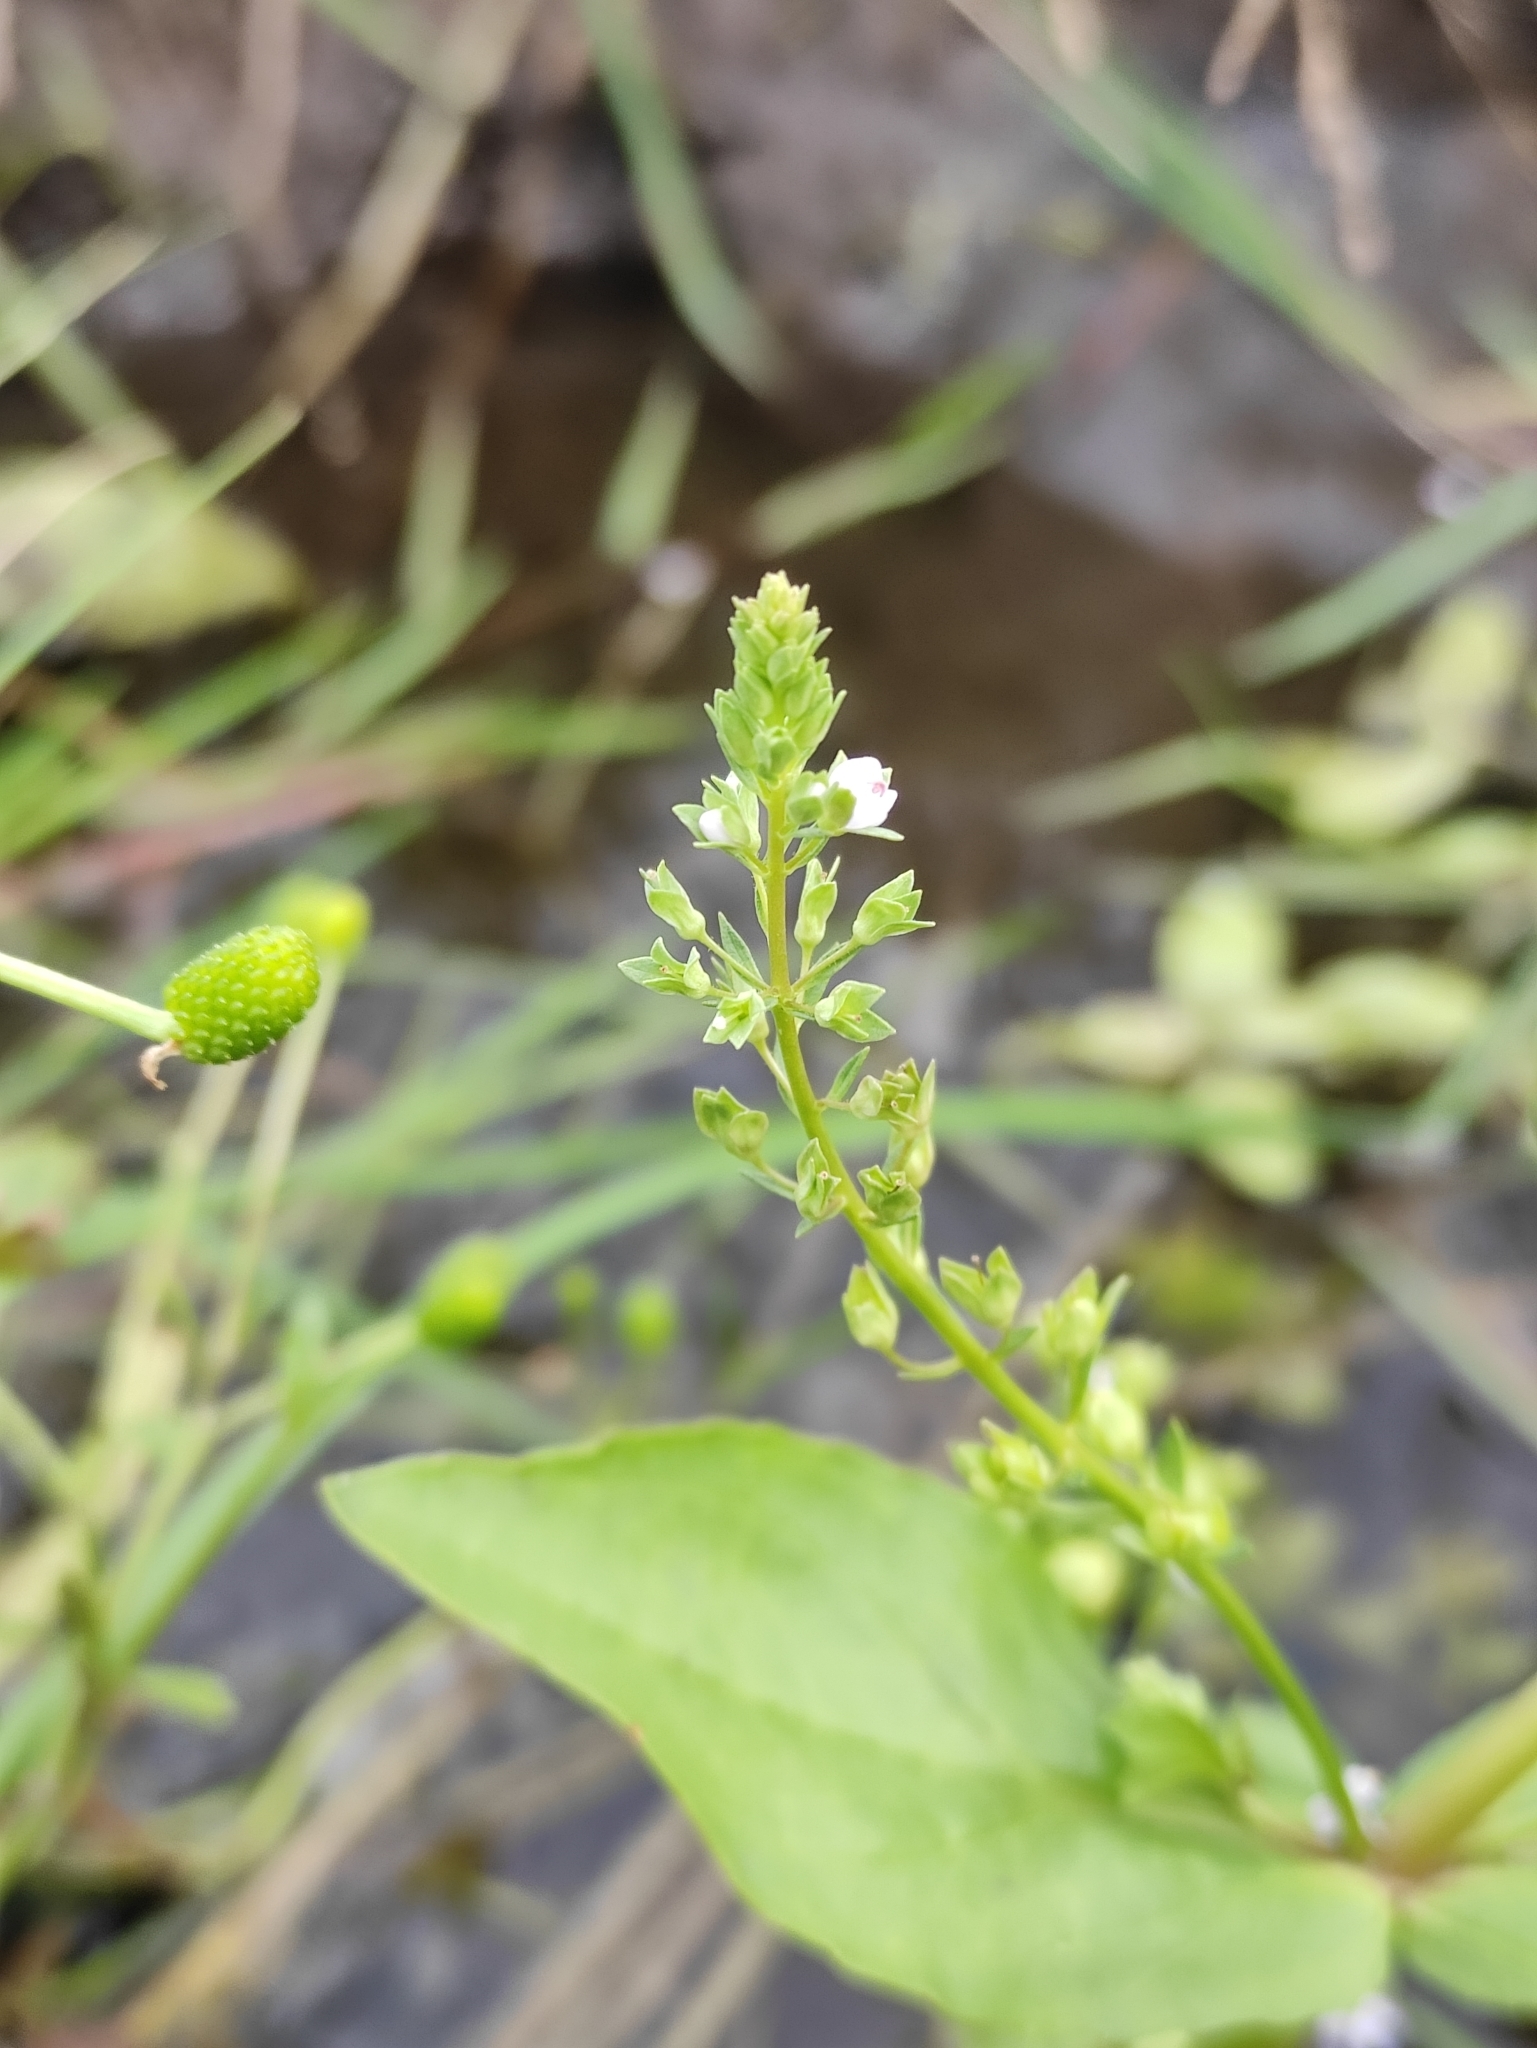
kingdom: Plantae
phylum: Tracheophyta
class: Magnoliopsida
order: Lamiales
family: Plantaginaceae
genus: Veronica
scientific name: Veronica anagallis-aquatica
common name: Water speedwell
